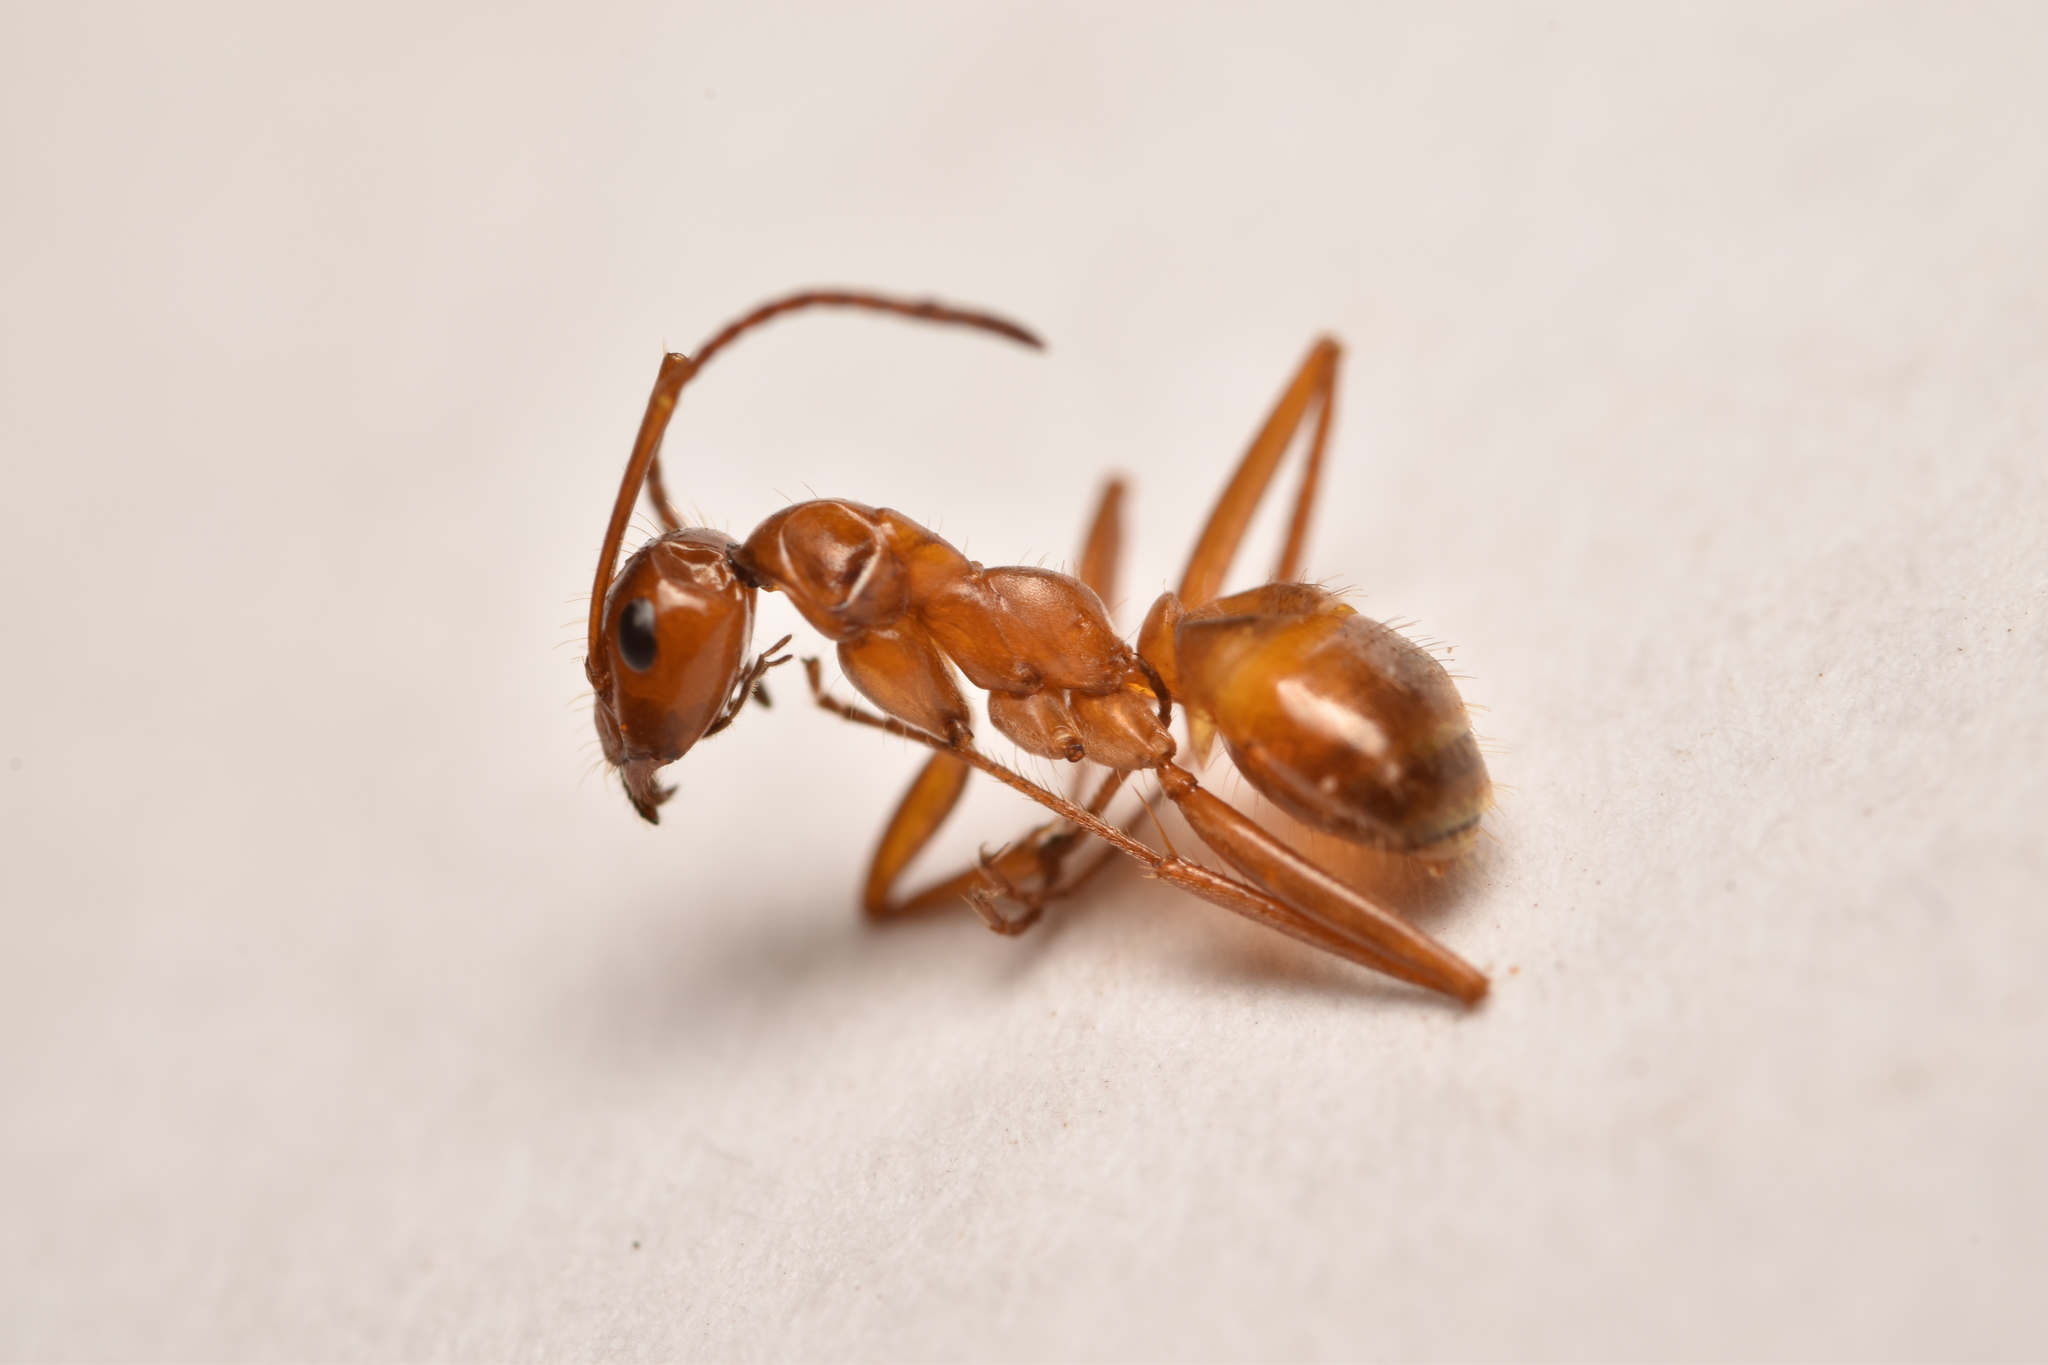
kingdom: Animalia
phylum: Arthropoda
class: Insecta
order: Hymenoptera
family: Formicidae
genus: Formica
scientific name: Formica biophilica
